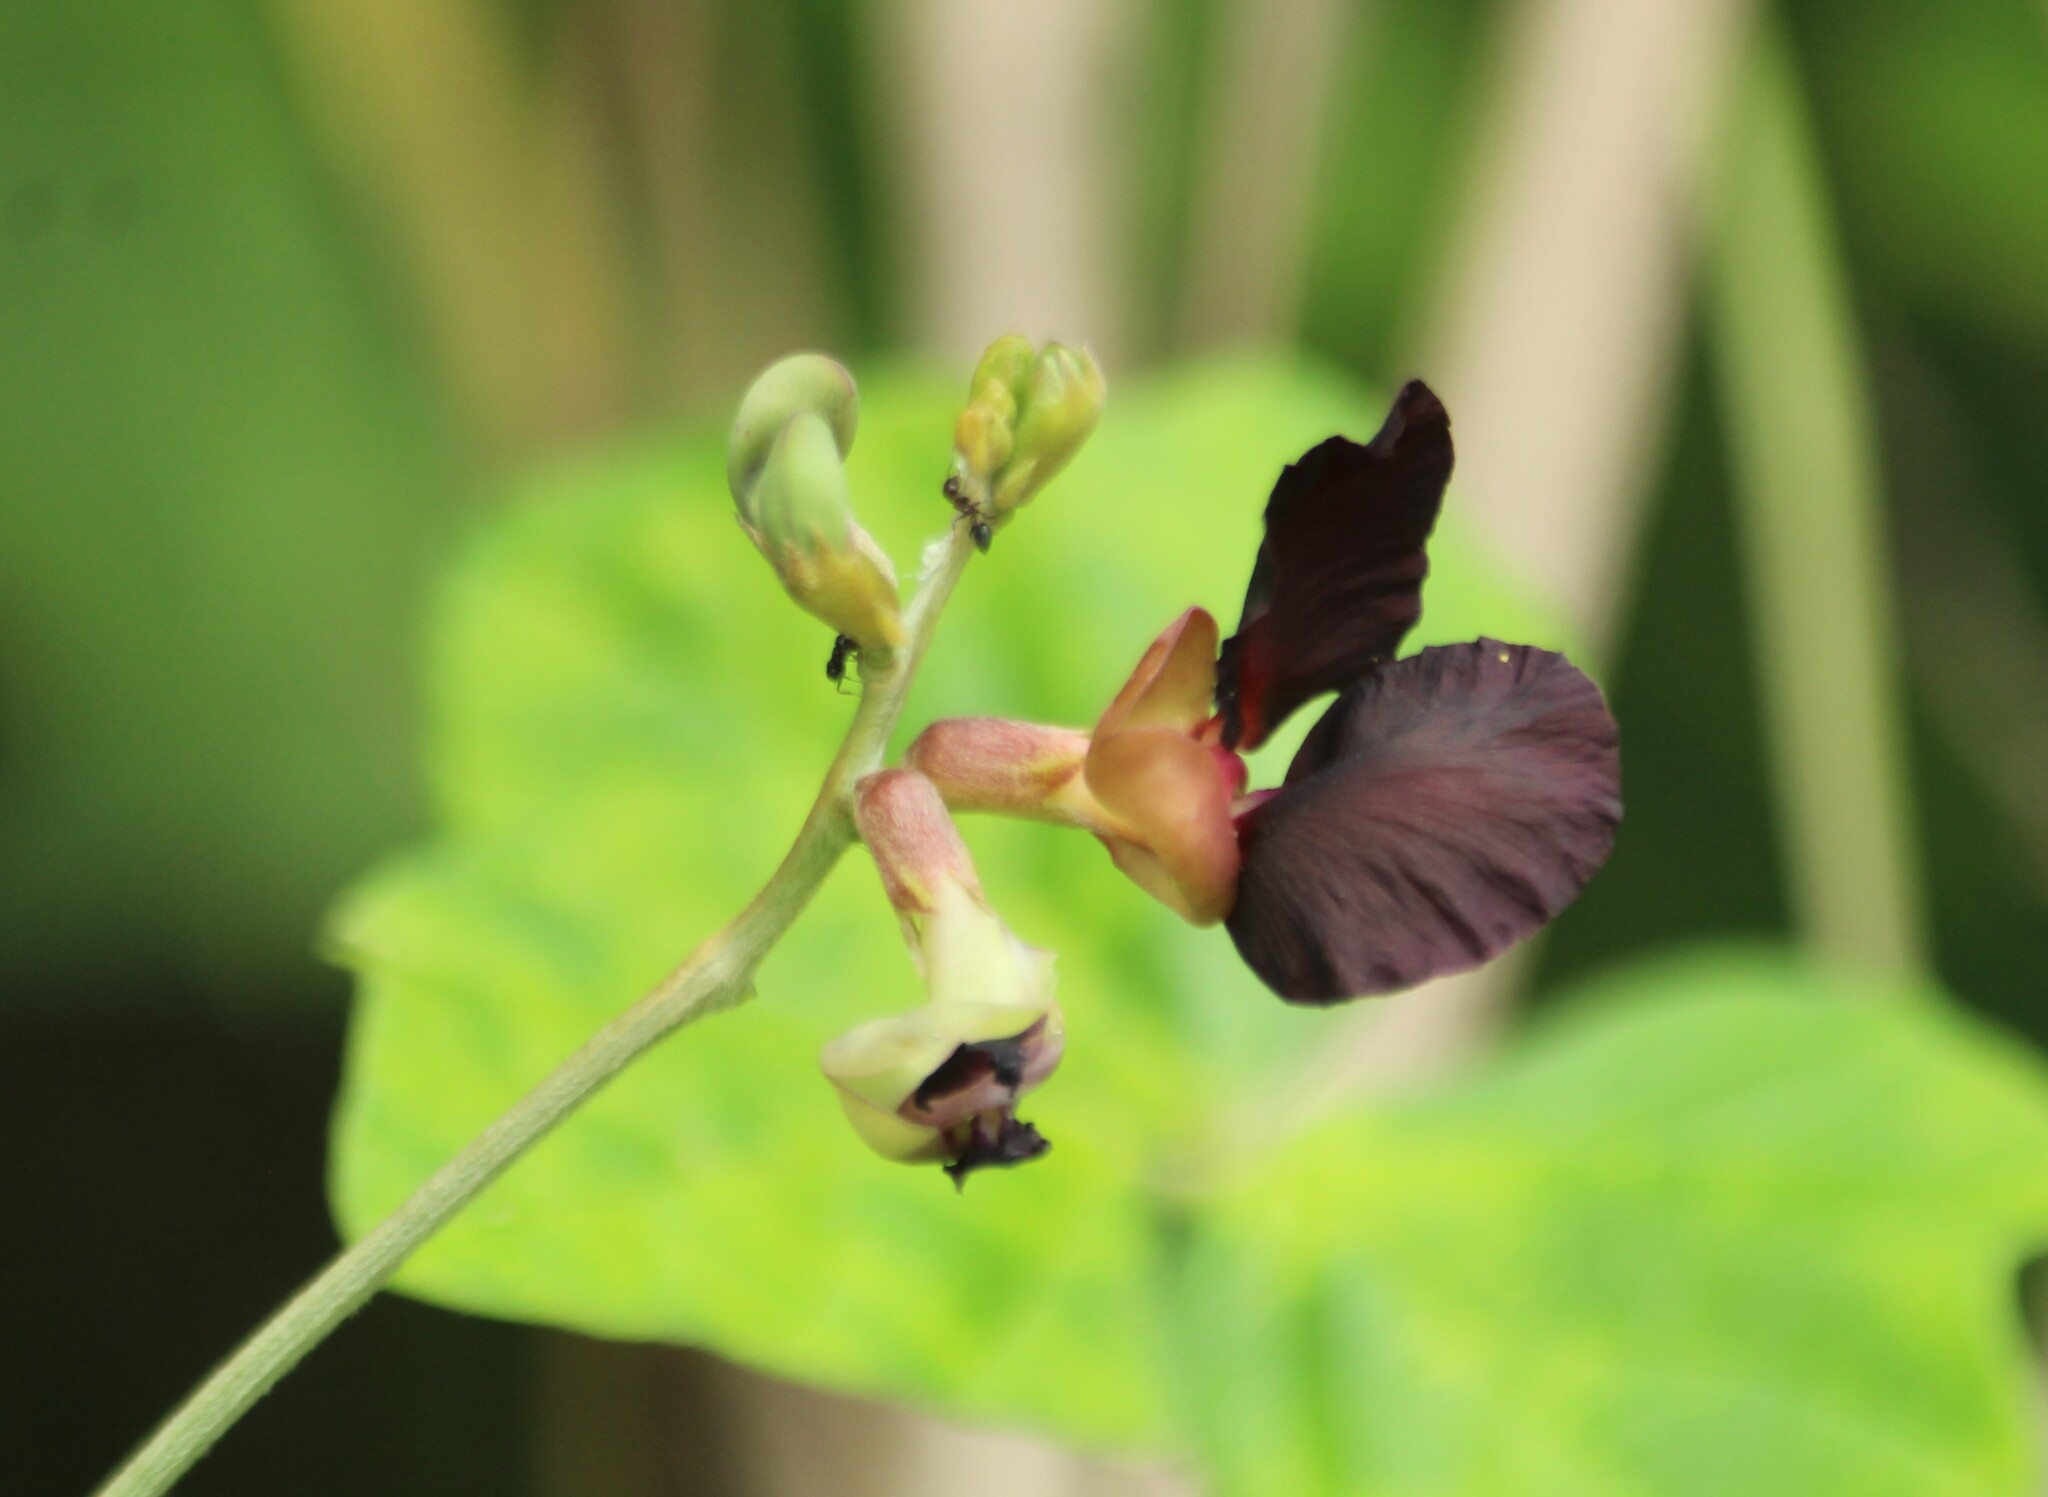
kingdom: Plantae
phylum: Tracheophyta
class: Magnoliopsida
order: Fabales
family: Fabaceae
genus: Macroptilium
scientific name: Macroptilium atropurpureum
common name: Purple bushbean
